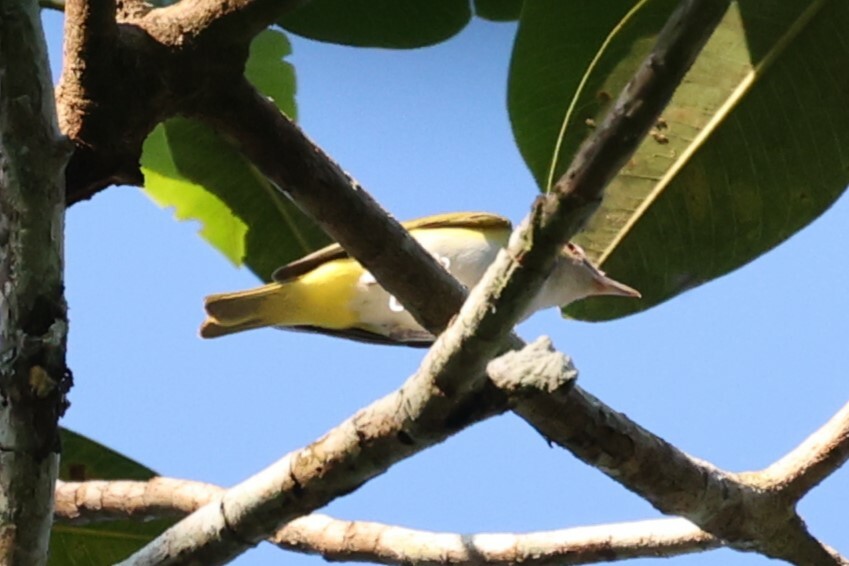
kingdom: Animalia
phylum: Chordata
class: Aves
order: Passeriformes
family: Vireonidae
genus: Vireo
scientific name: Vireo flavoviridis
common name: Yellow-green vireo
